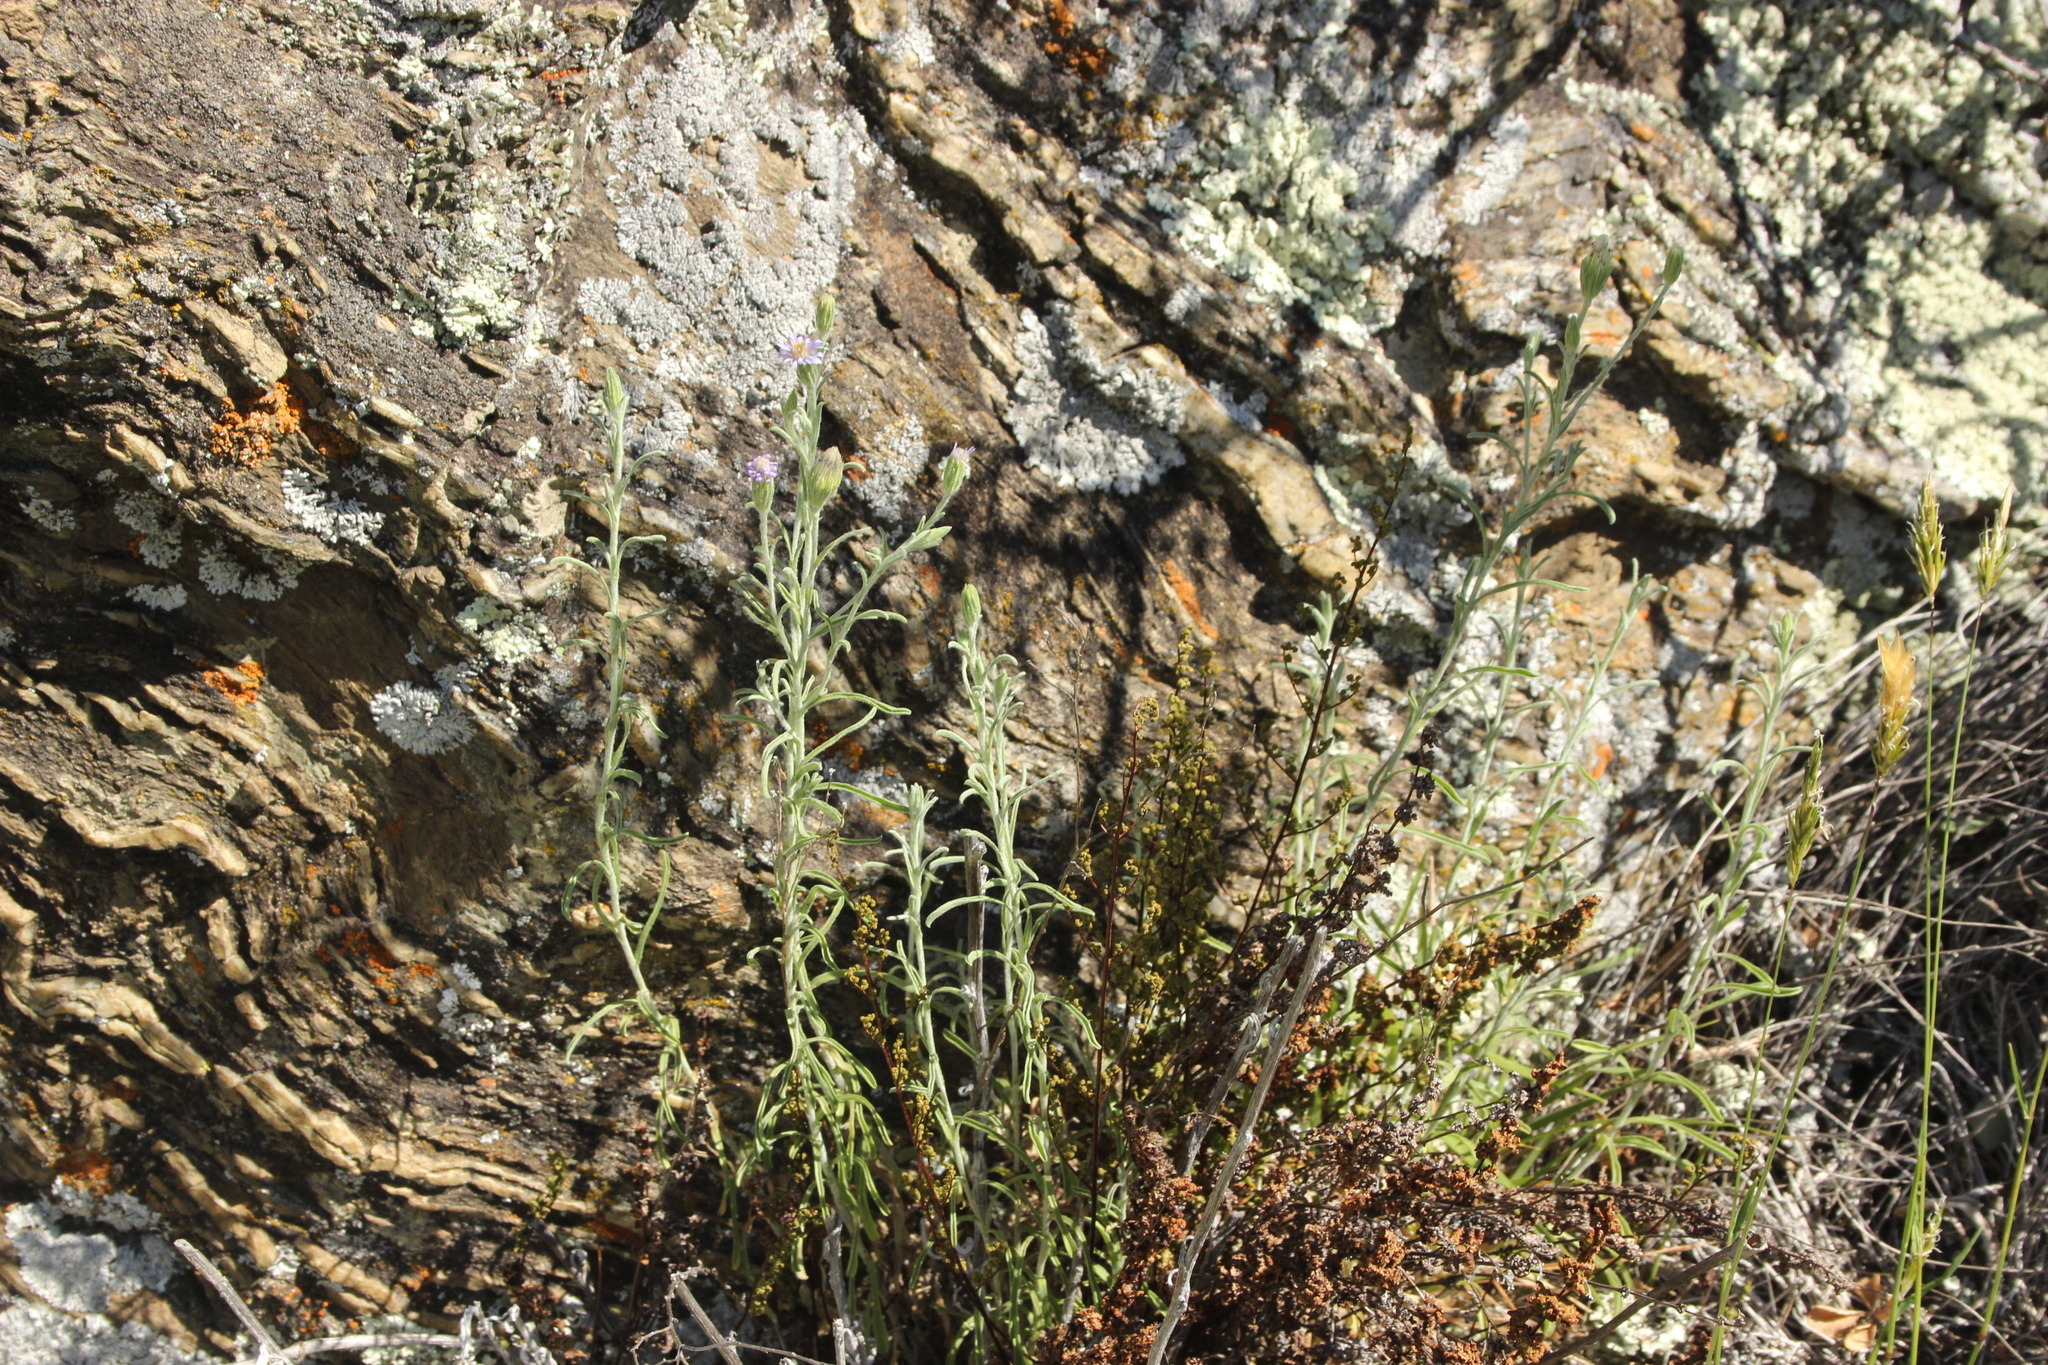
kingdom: Plantae
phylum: Tracheophyta
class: Magnoliopsida
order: Asterales
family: Asteraceae
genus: Vittadinia
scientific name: Vittadinia gracilis
